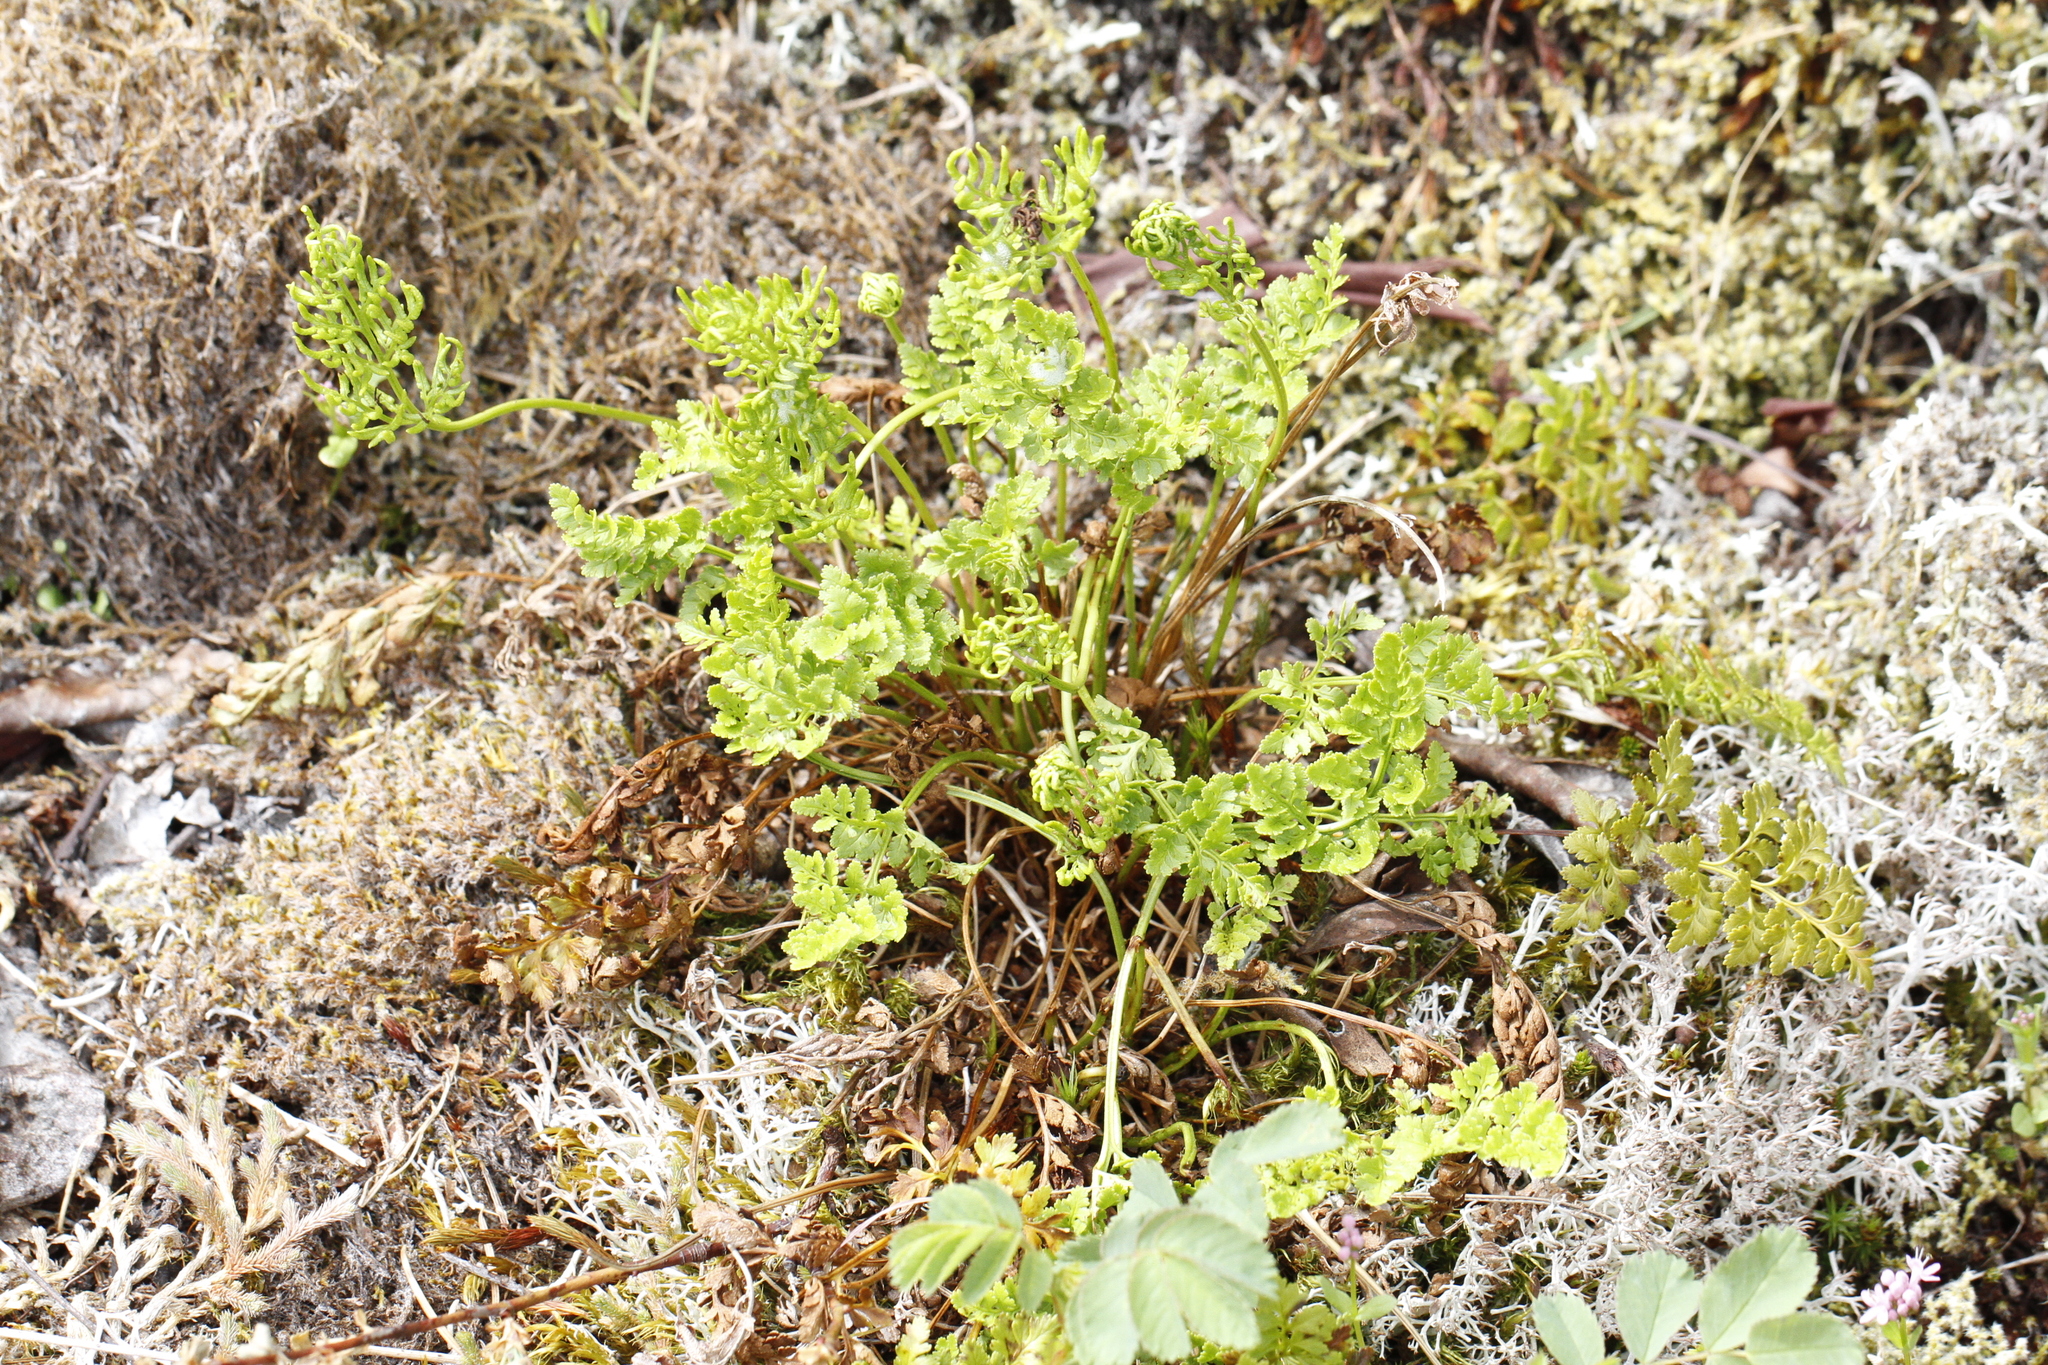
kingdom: Plantae
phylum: Tracheophyta
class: Polypodiopsida
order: Polypodiales
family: Pteridaceae
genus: Cryptogramma
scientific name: Cryptogramma acrostichoides
